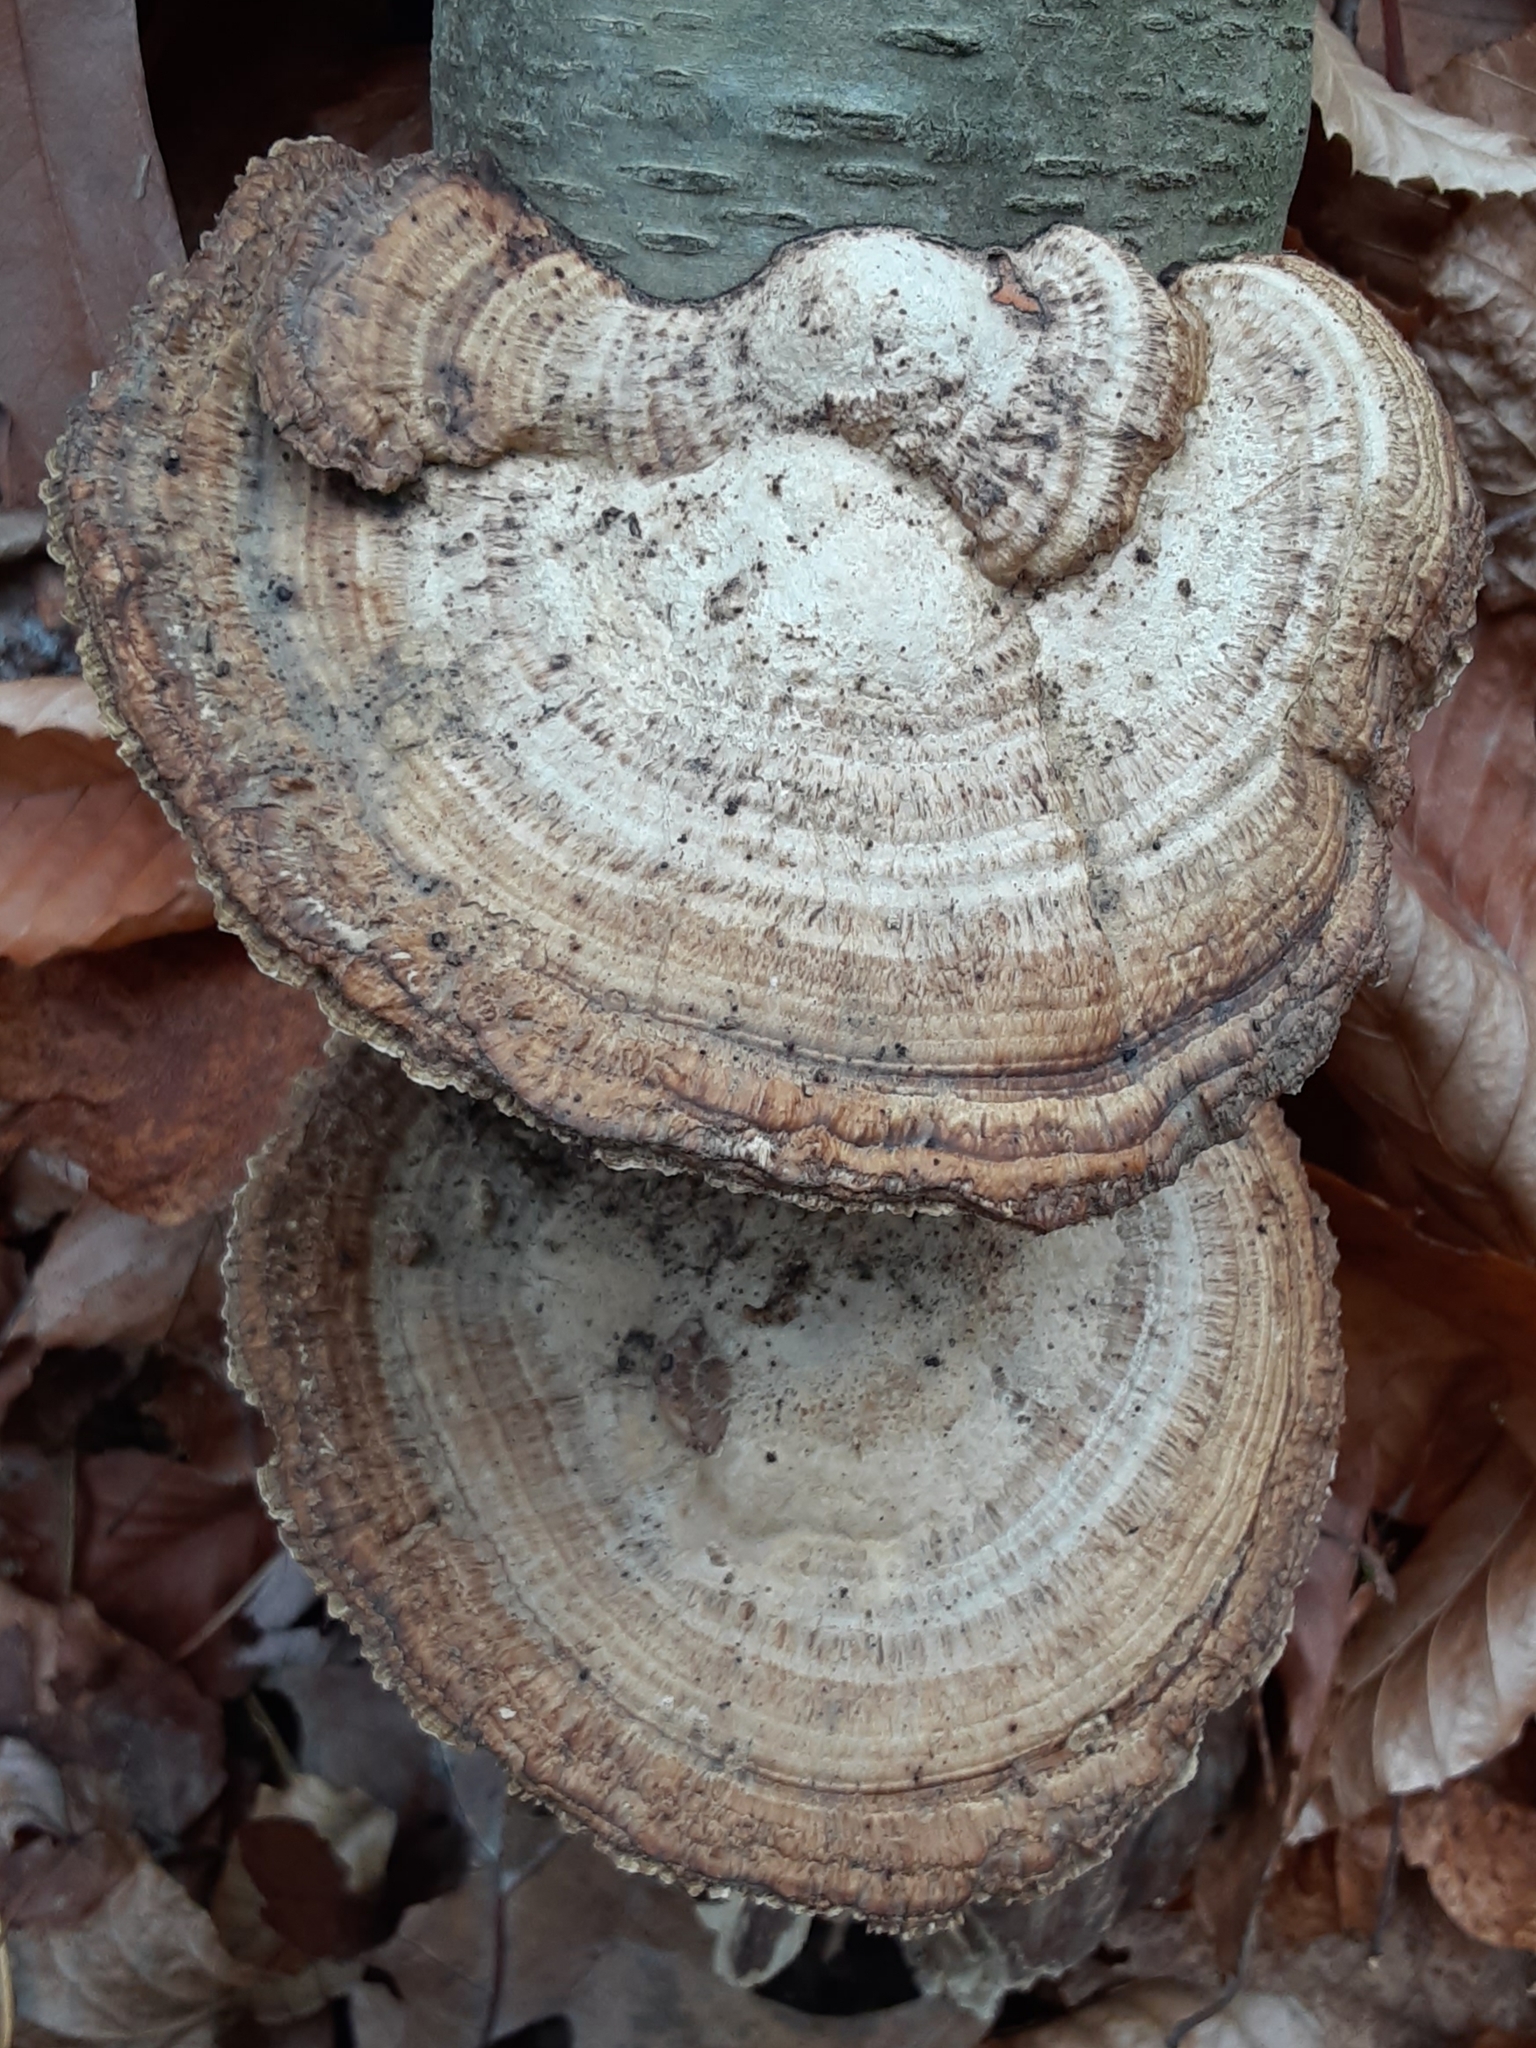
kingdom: Fungi
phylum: Basidiomycota
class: Agaricomycetes
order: Polyporales
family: Polyporaceae
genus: Daedaleopsis
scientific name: Daedaleopsis confragosa
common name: Blushing bracket
